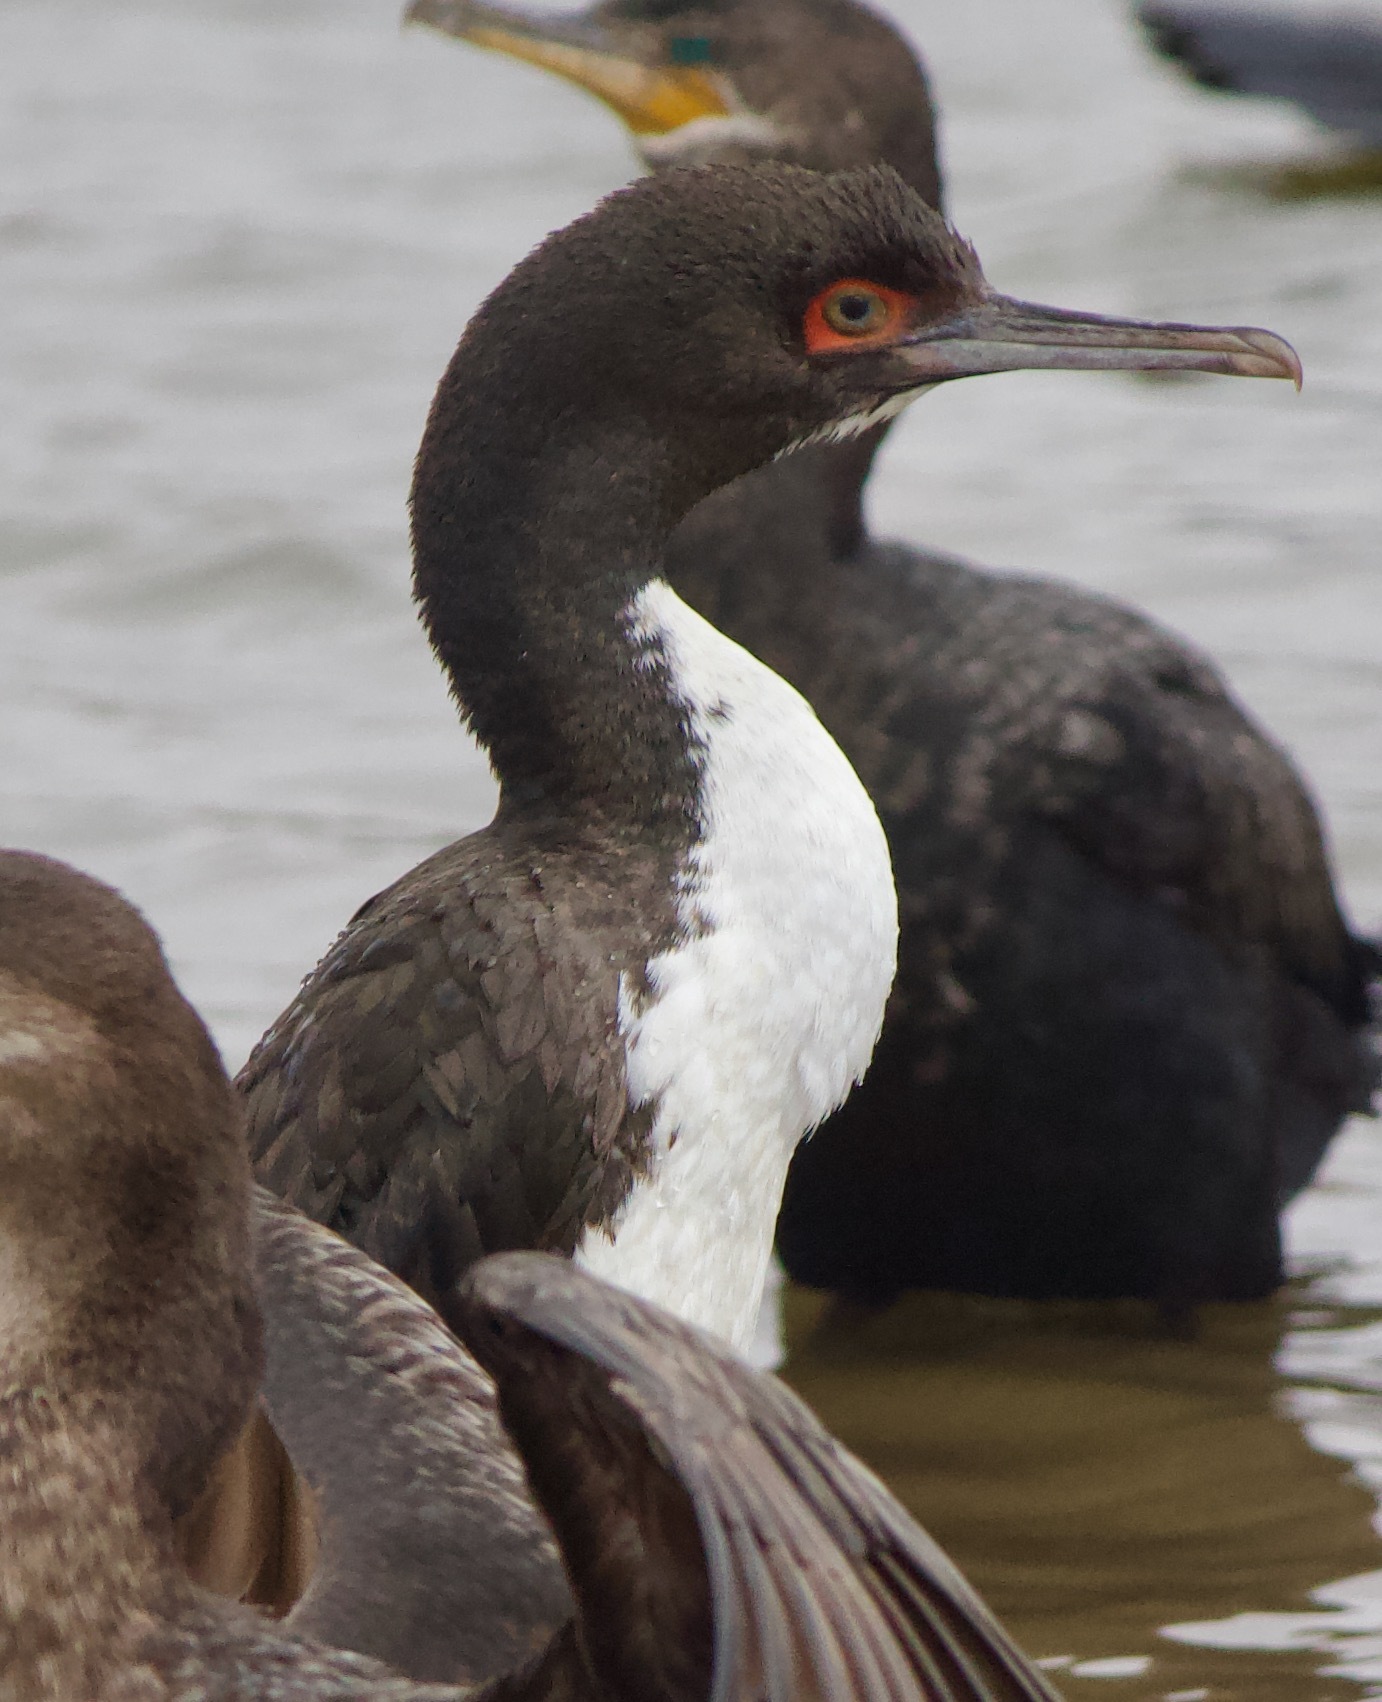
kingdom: Animalia
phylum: Chordata
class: Aves
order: Suliformes
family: Phalacrocoracidae
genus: Leucocarbo
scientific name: Leucocarbo bougainvillii
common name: Guanay cormorant
